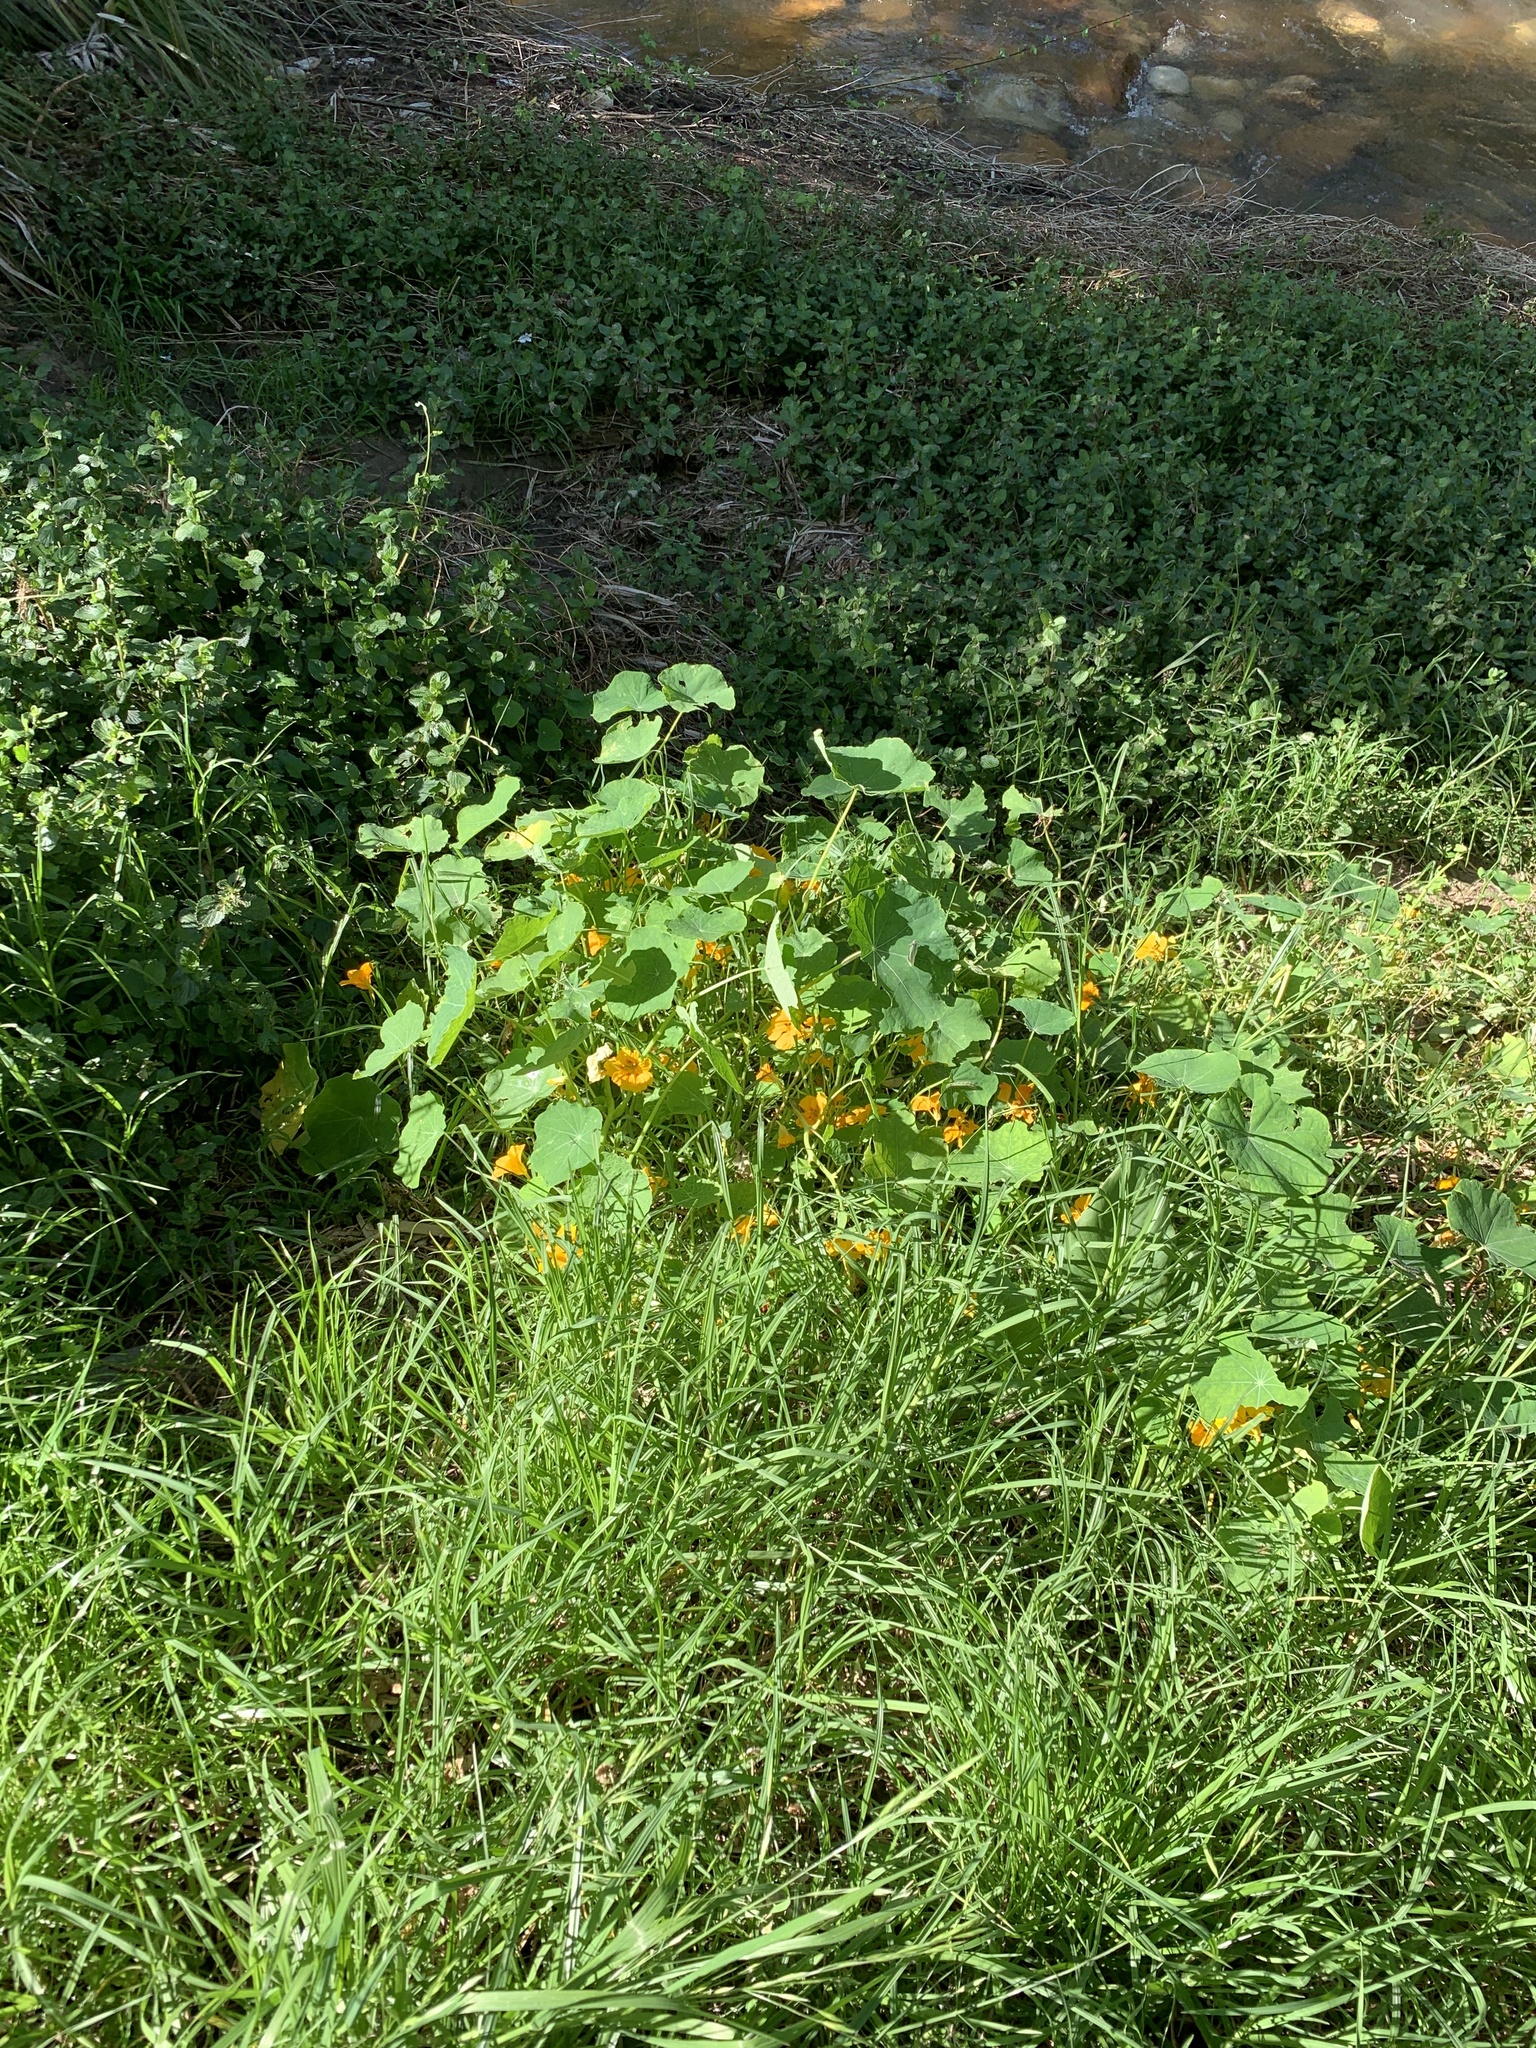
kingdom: Plantae
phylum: Tracheophyta
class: Magnoliopsida
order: Brassicales
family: Tropaeolaceae
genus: Tropaeolum
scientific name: Tropaeolum majus
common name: Nasturtium
